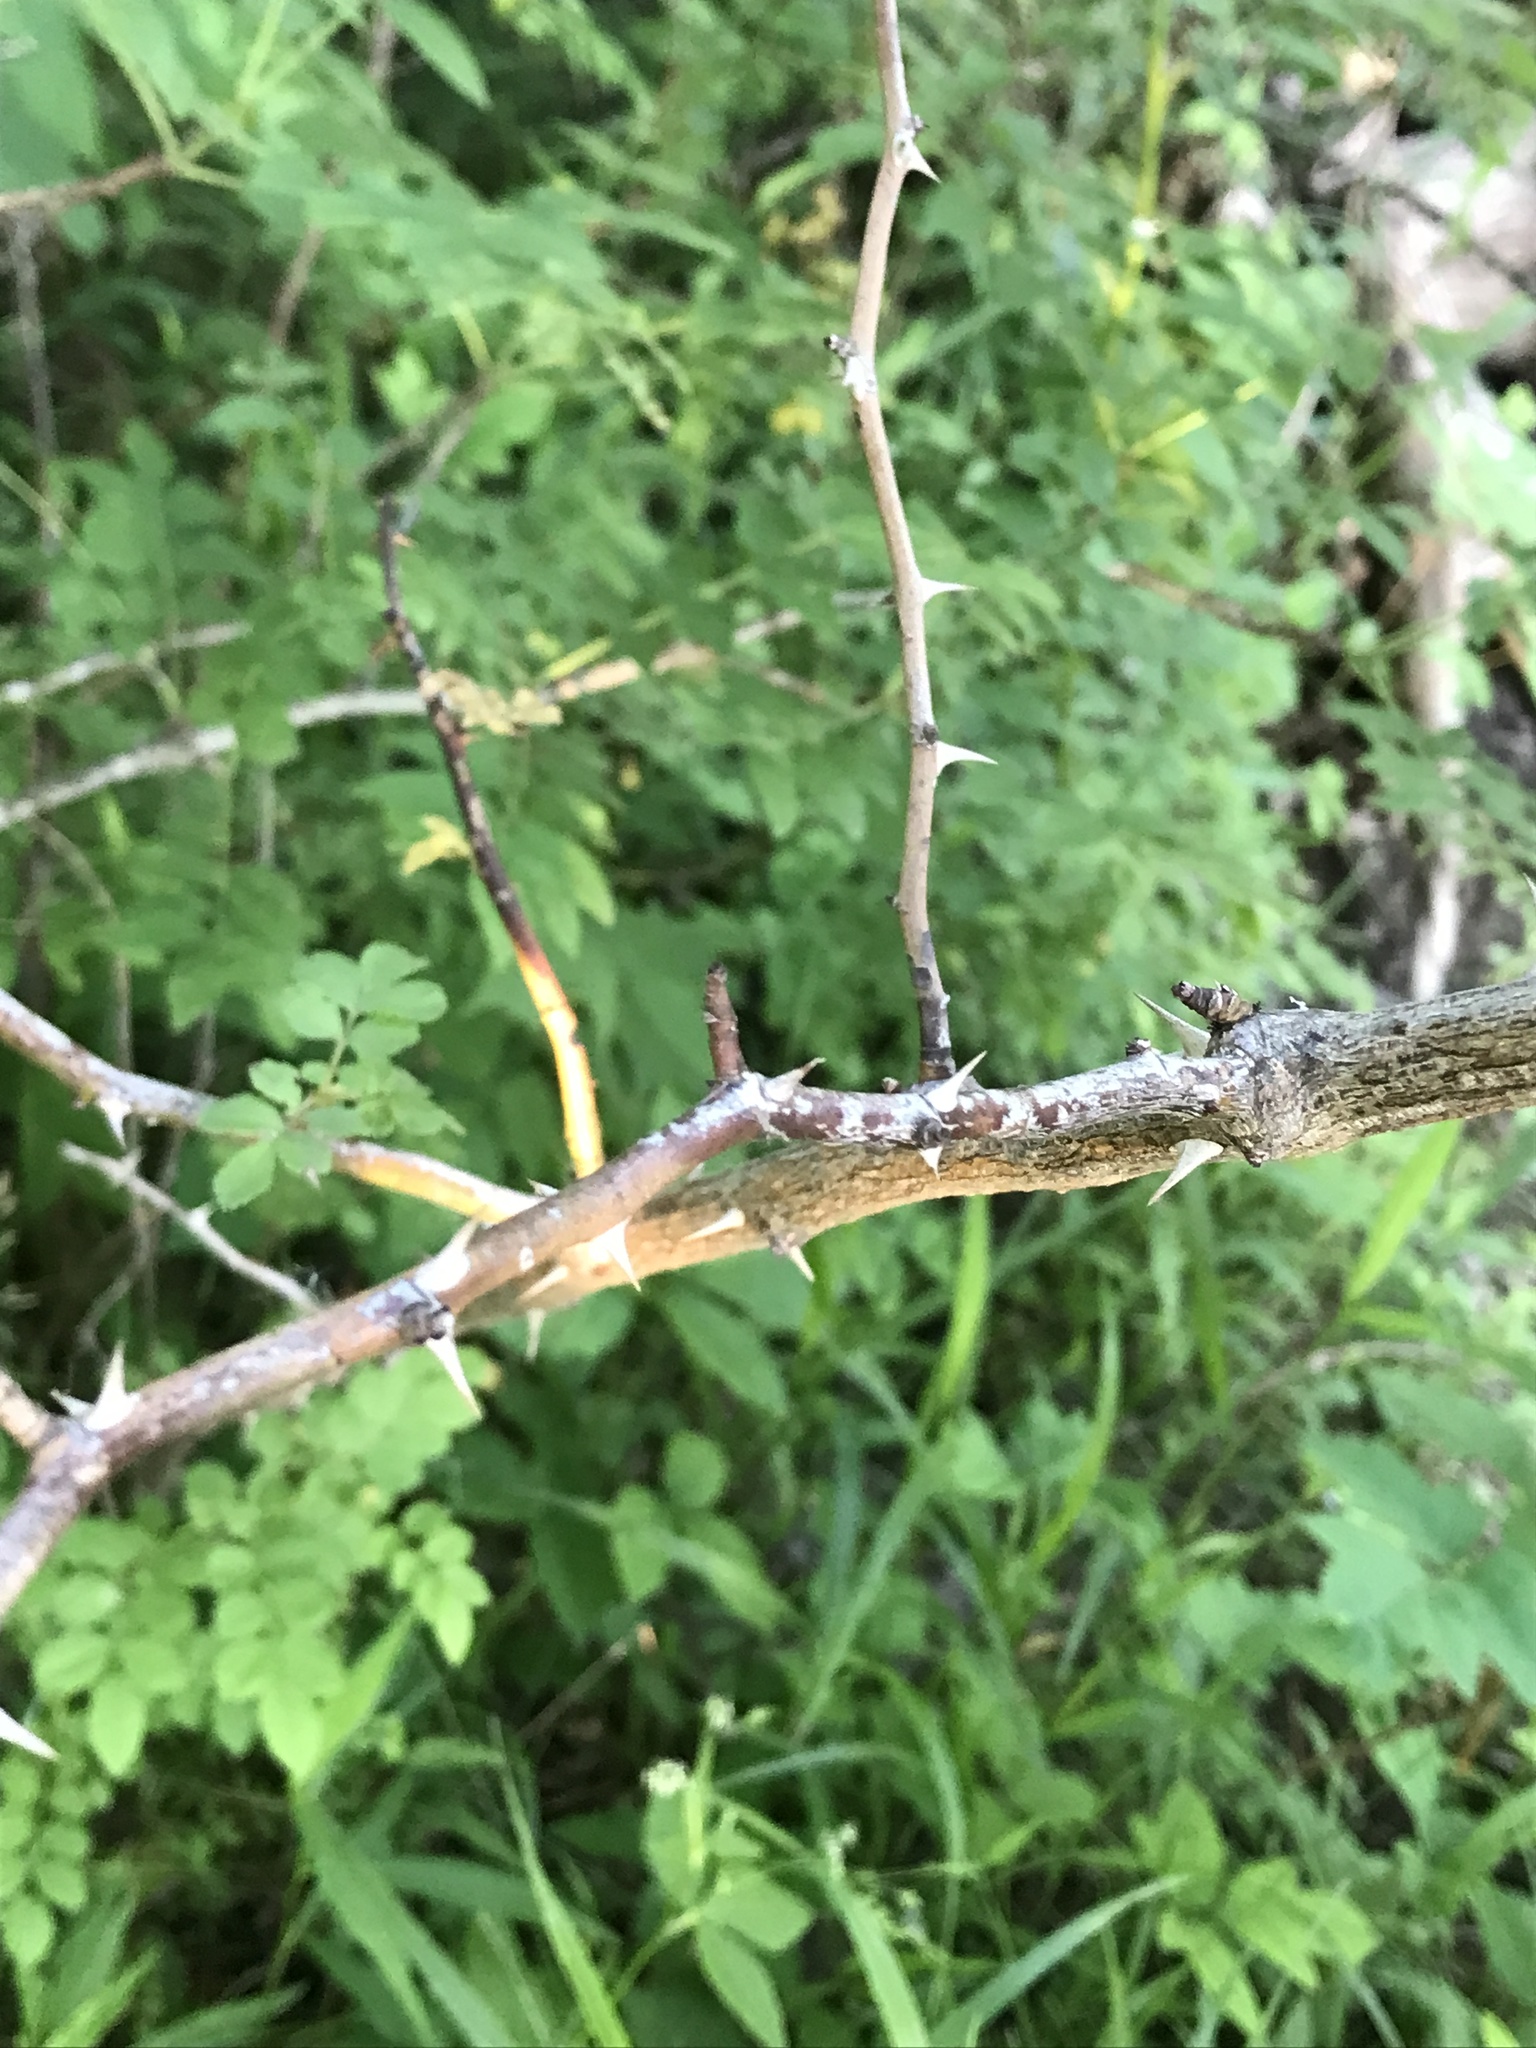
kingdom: Plantae
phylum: Tracheophyta
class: Magnoliopsida
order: Sapindales
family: Rutaceae
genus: Zanthoxylum
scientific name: Zanthoxylum americanum
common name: Northern prickly-ash
